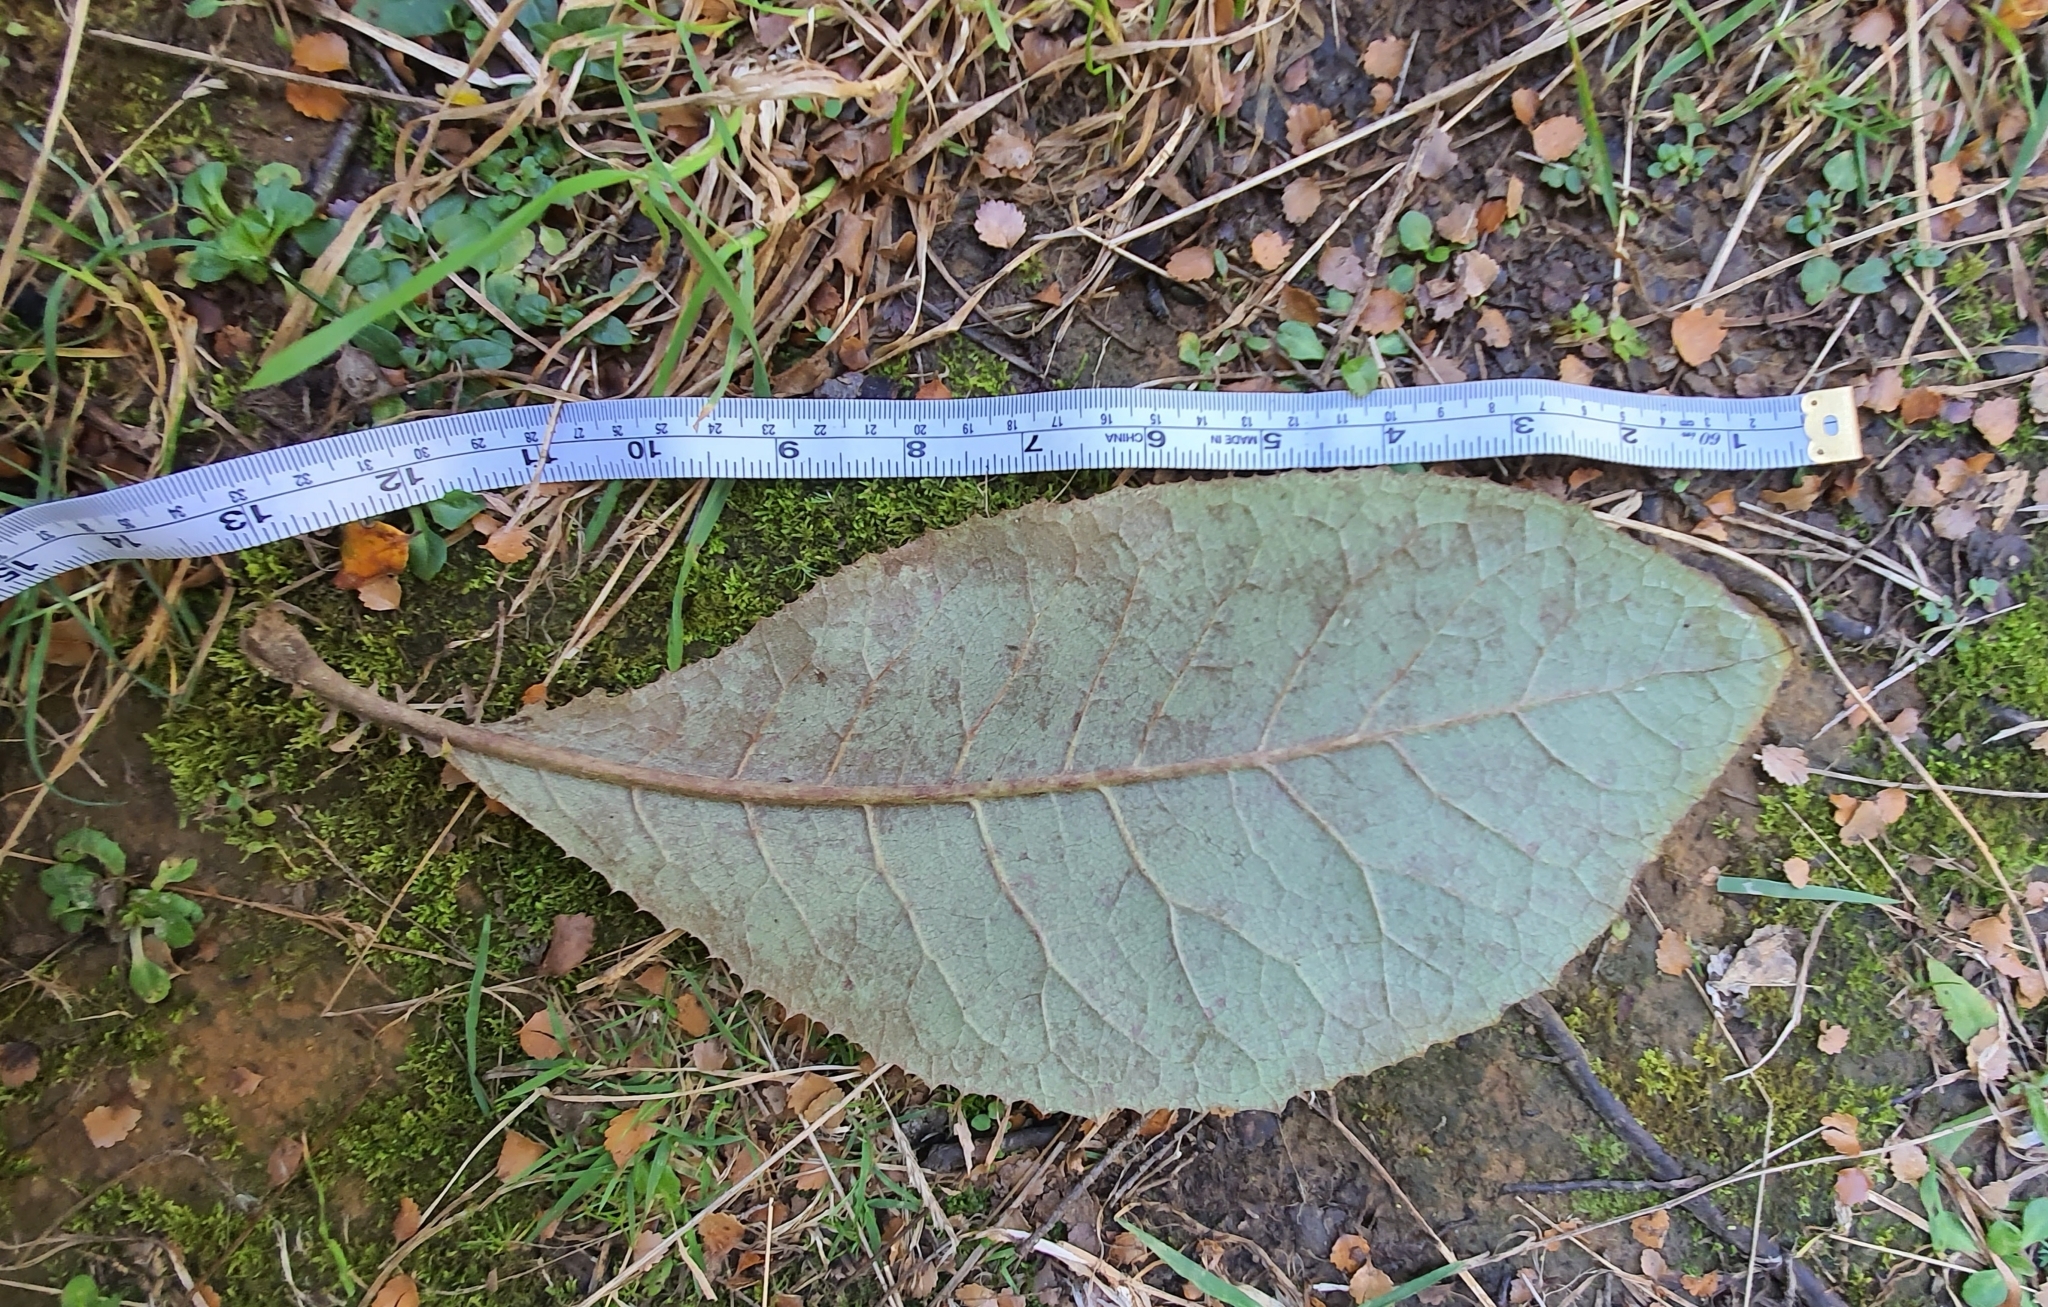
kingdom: Plantae
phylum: Tracheophyta
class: Magnoliopsida
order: Asterales
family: Asteraceae
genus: Brachyglottis
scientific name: Brachyglottis hectorii
